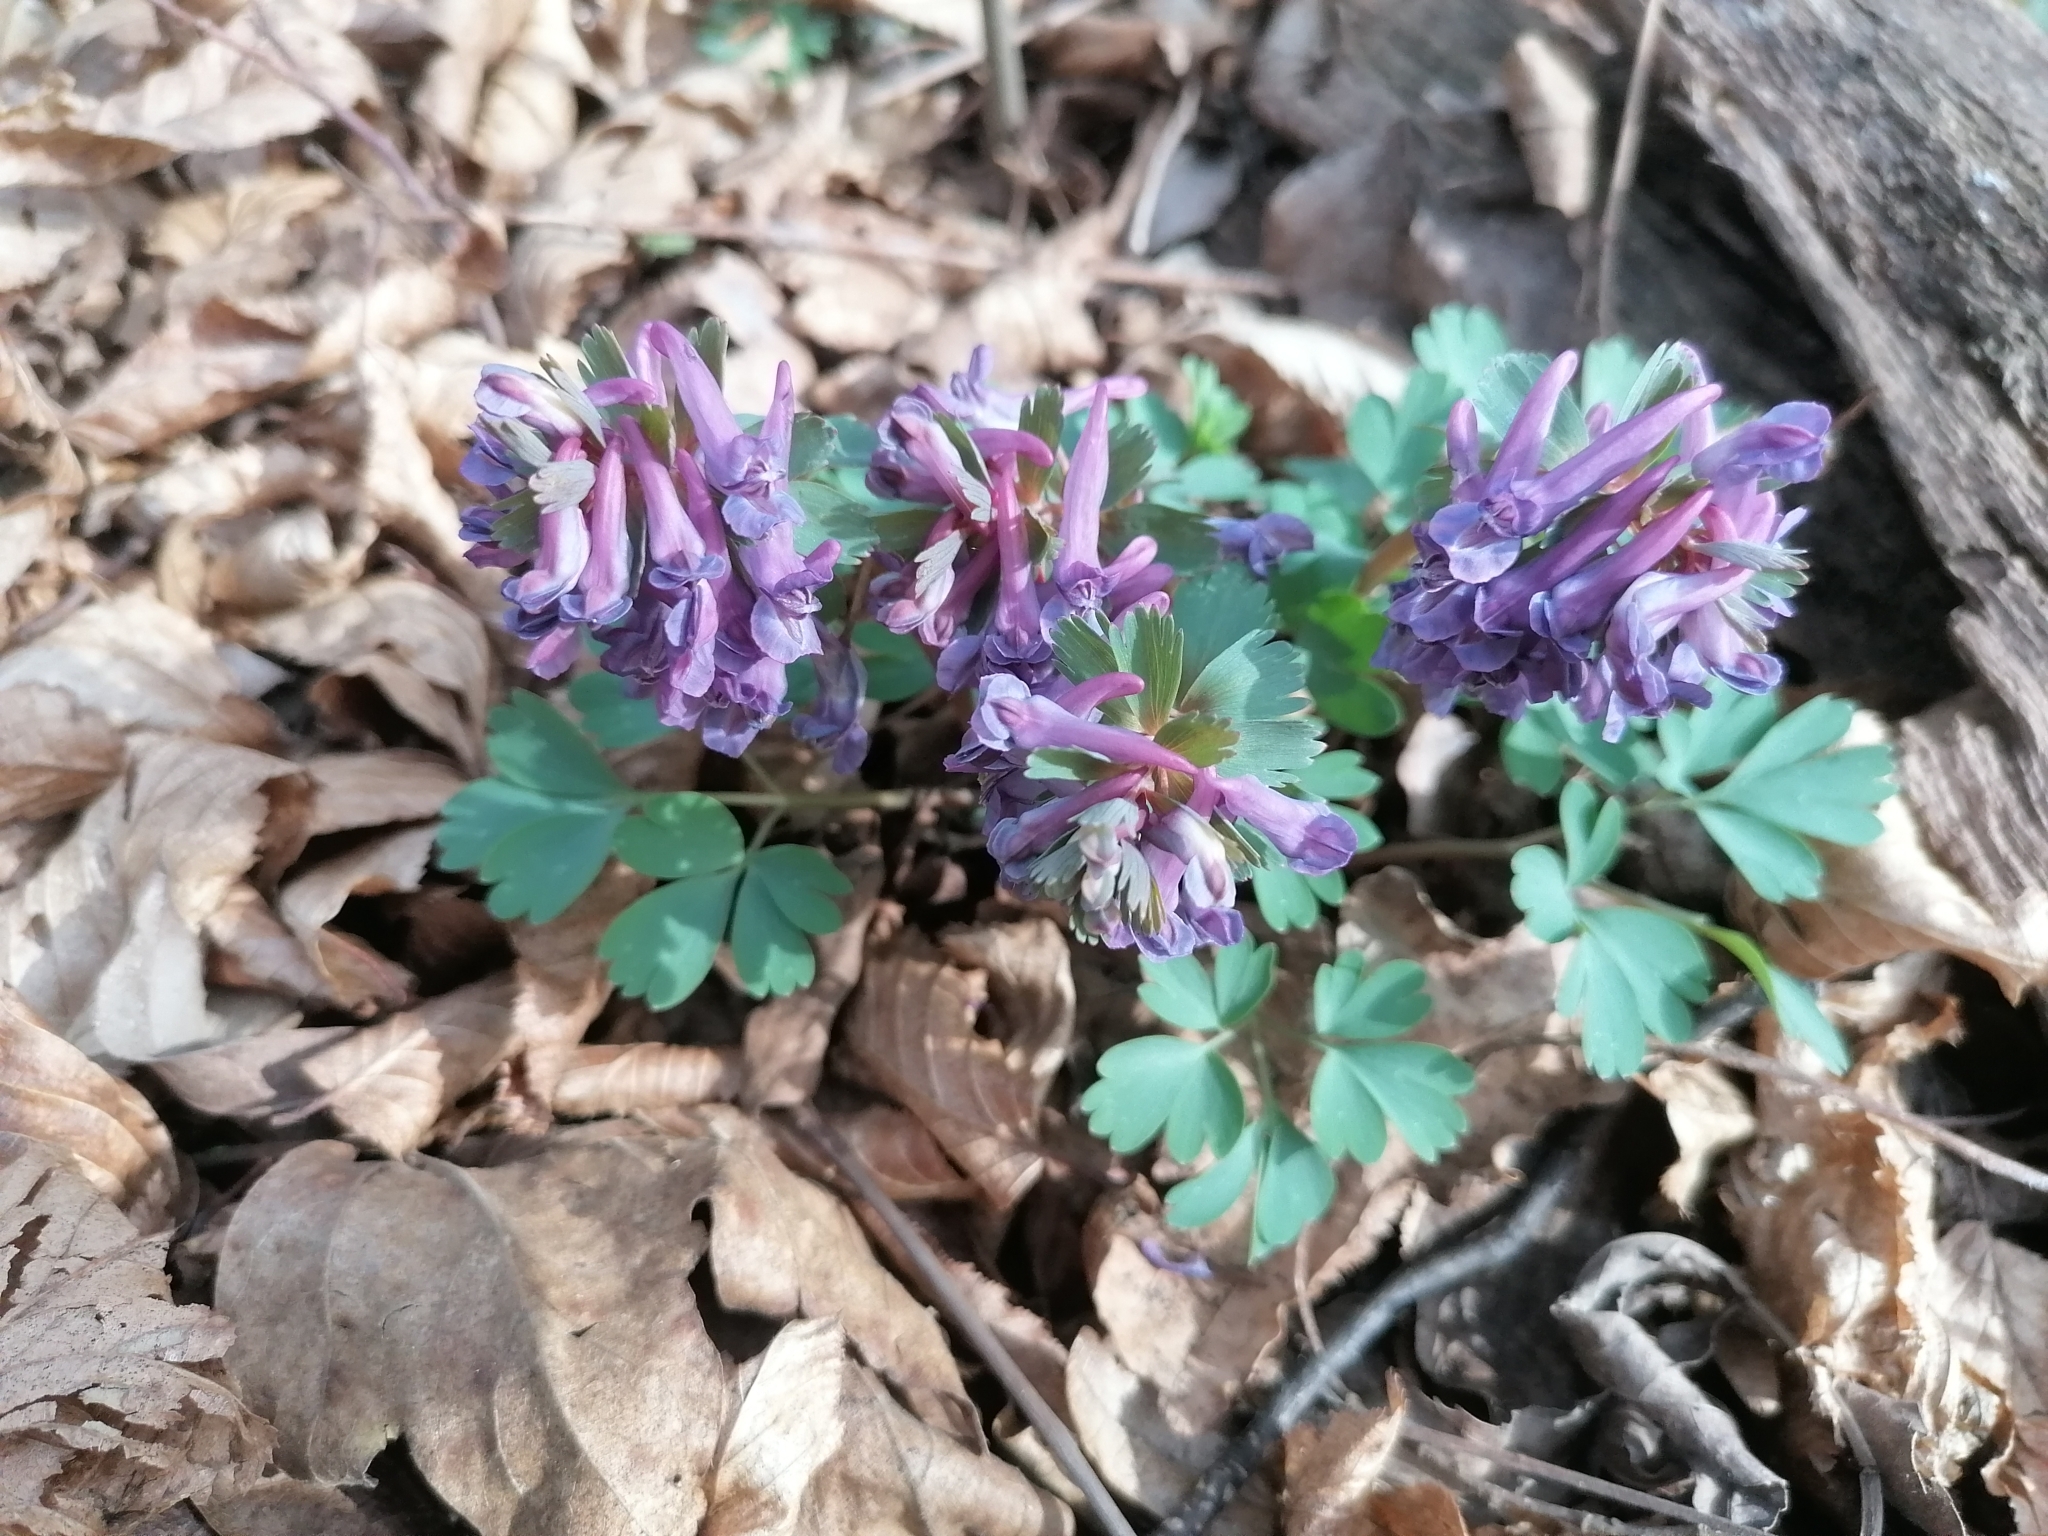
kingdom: Plantae
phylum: Tracheophyta
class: Magnoliopsida
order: Ranunculales
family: Papaveraceae
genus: Corydalis
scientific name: Corydalis solida
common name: Bird-in-a-bush
